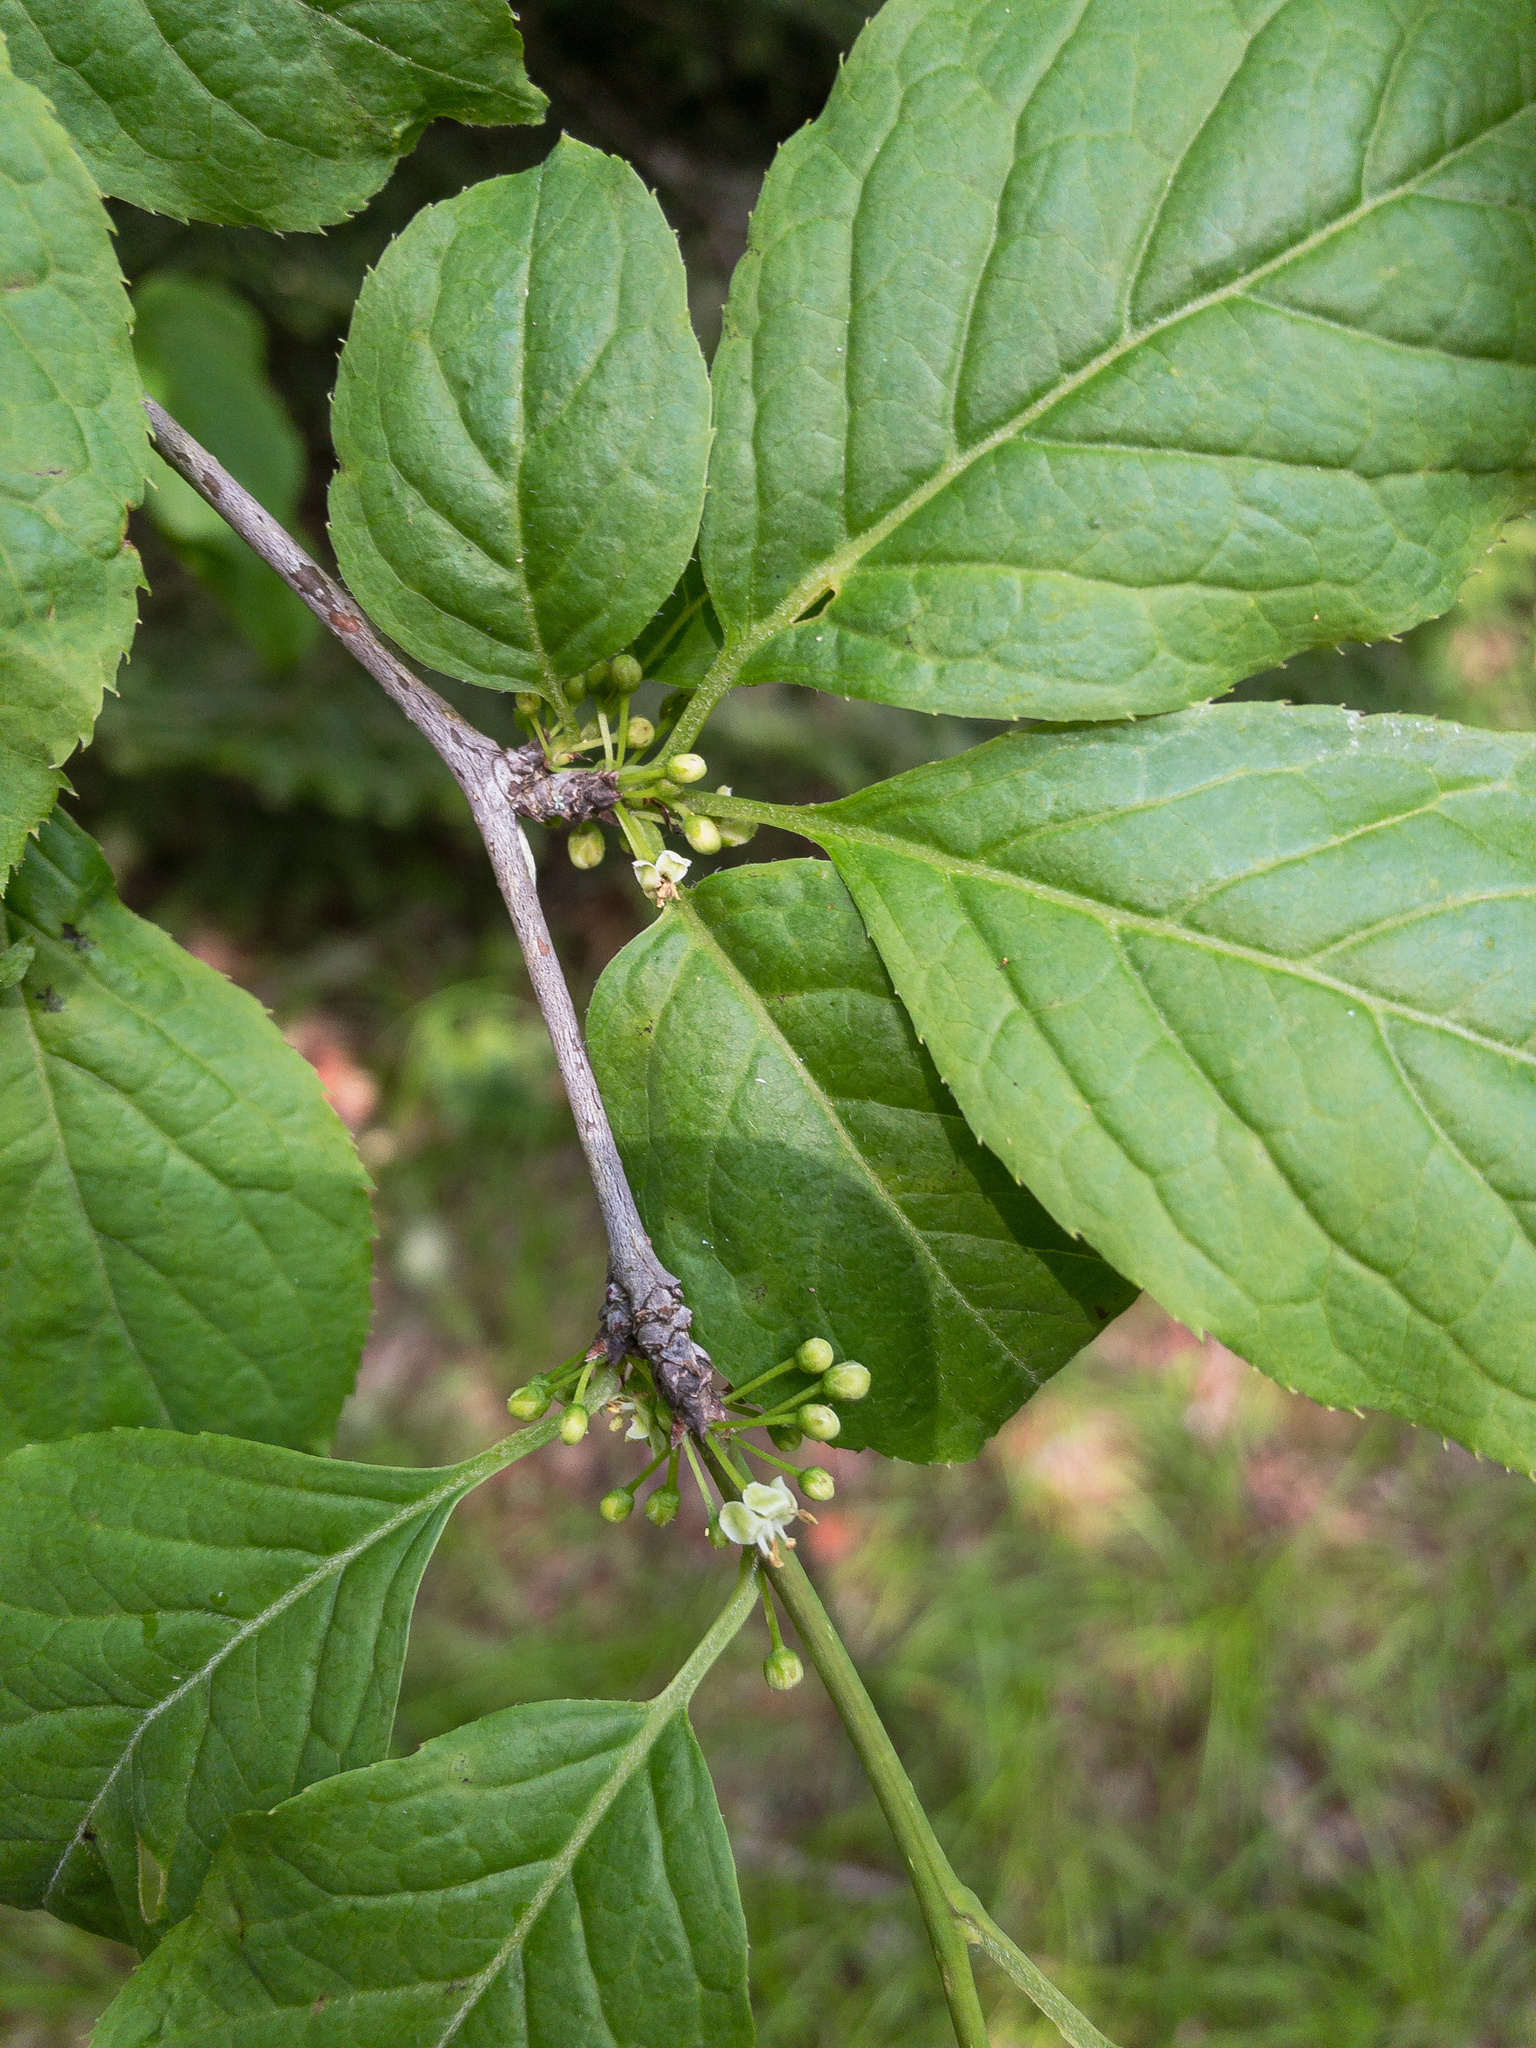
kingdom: Plantae
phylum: Tracheophyta
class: Magnoliopsida
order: Aquifoliales
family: Aquifoliaceae
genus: Ilex
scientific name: Ilex montana
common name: Mountain winterberry
